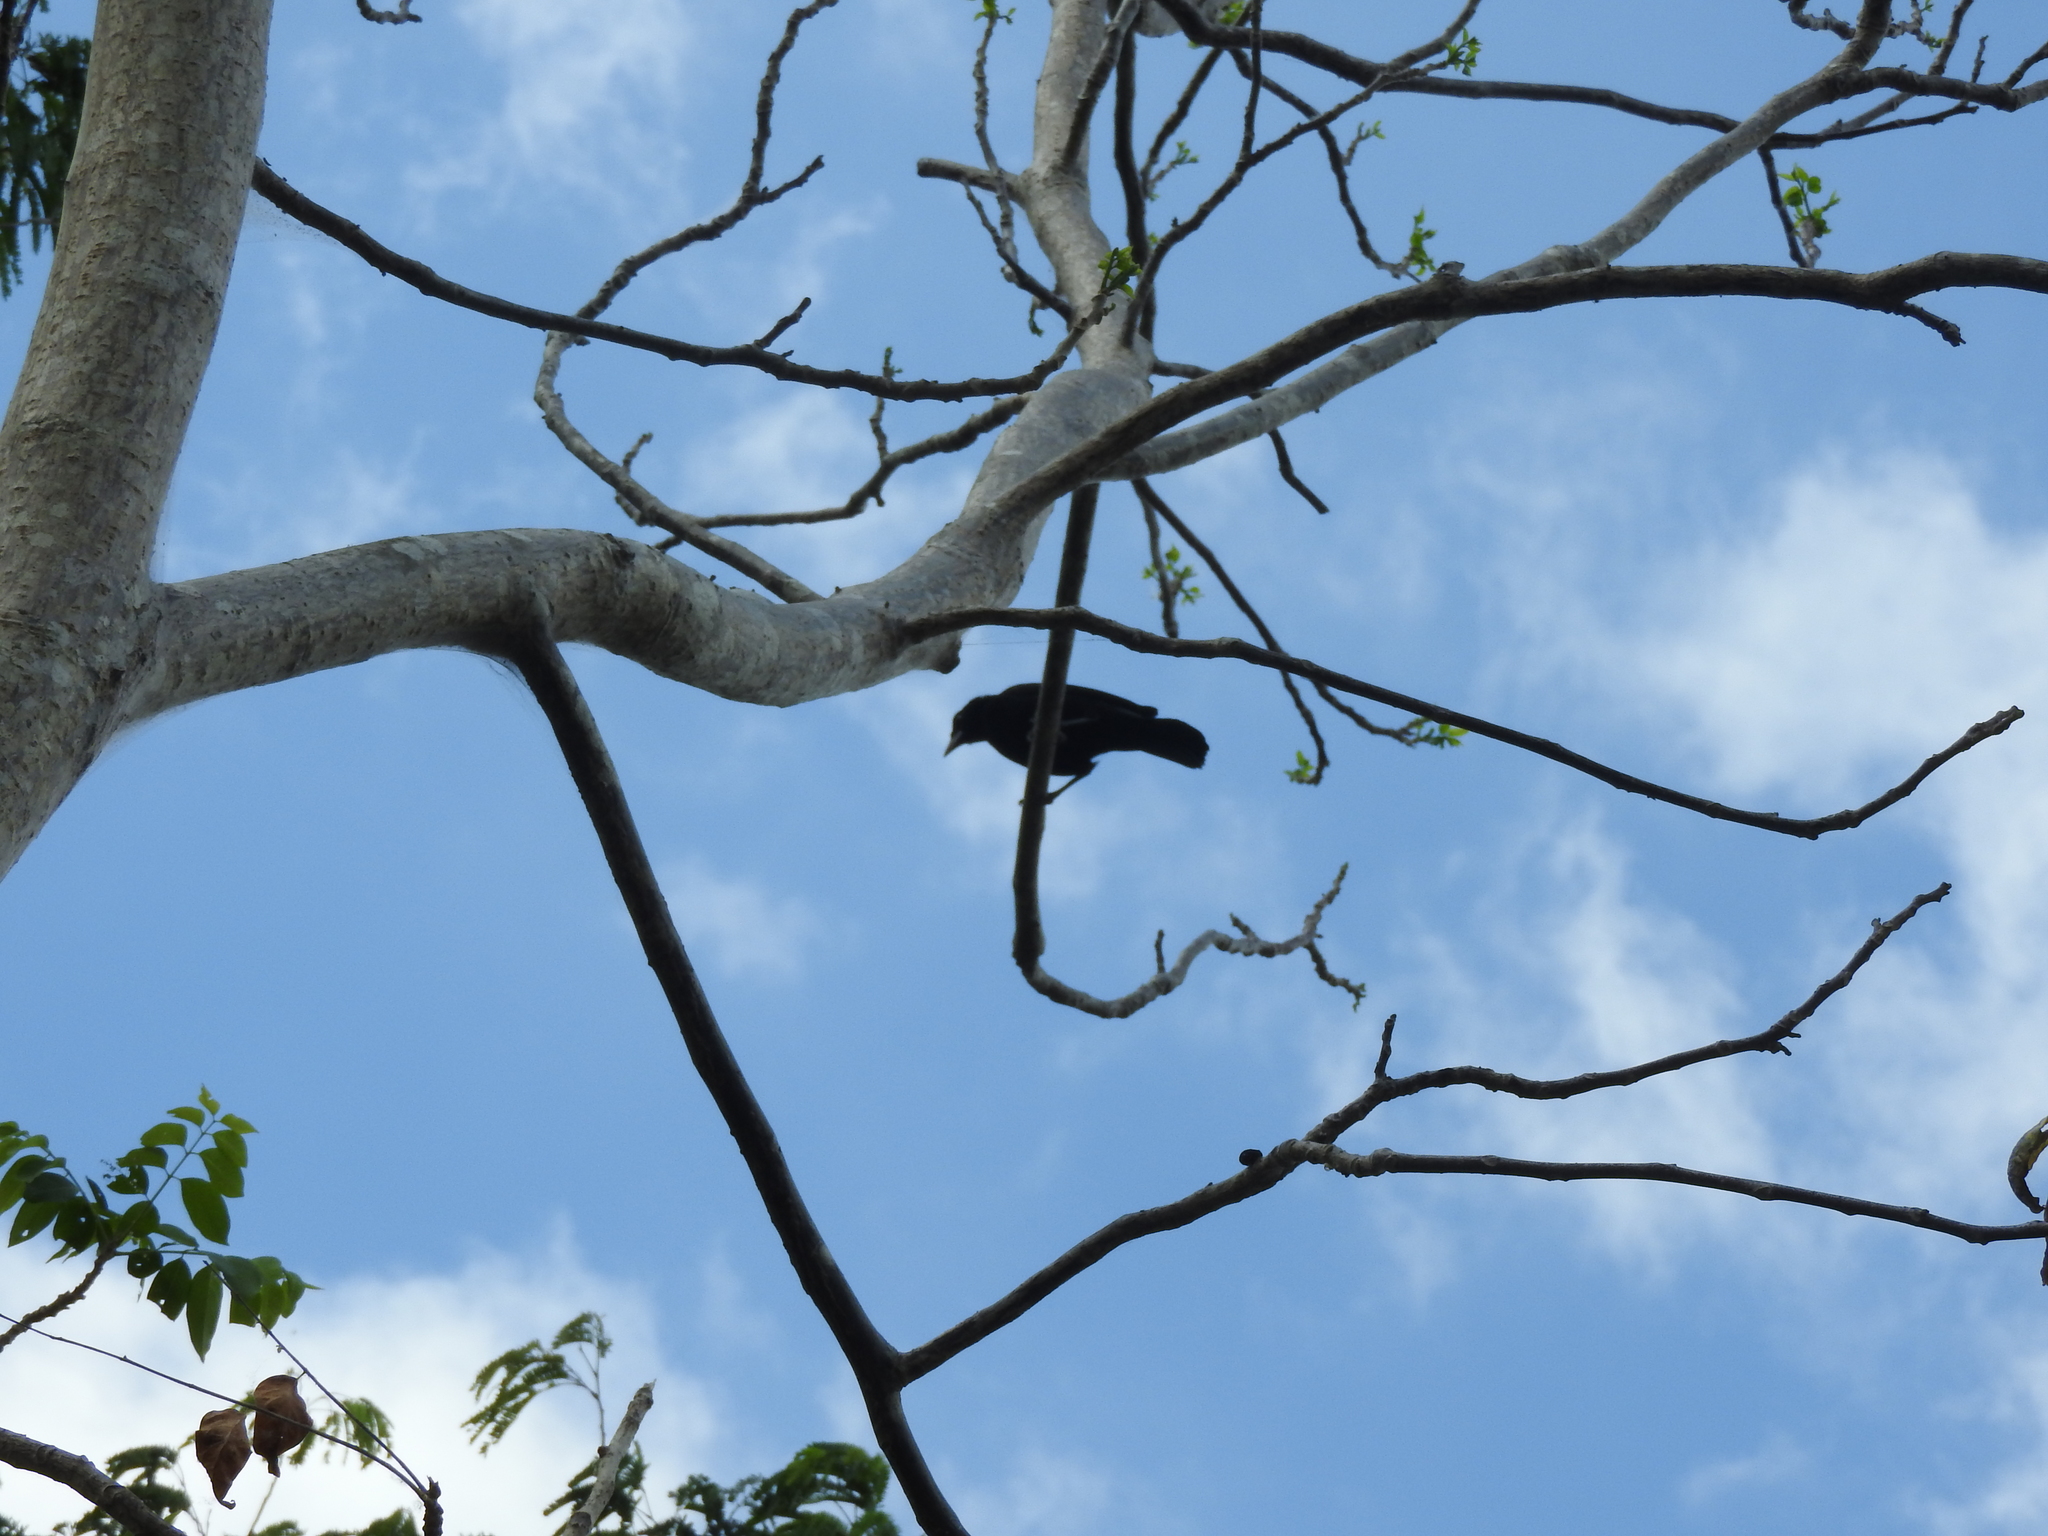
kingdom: Animalia
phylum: Chordata
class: Aves
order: Passeriformes
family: Icteridae
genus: Dives
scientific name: Dives dives
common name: Melodious blackbird
